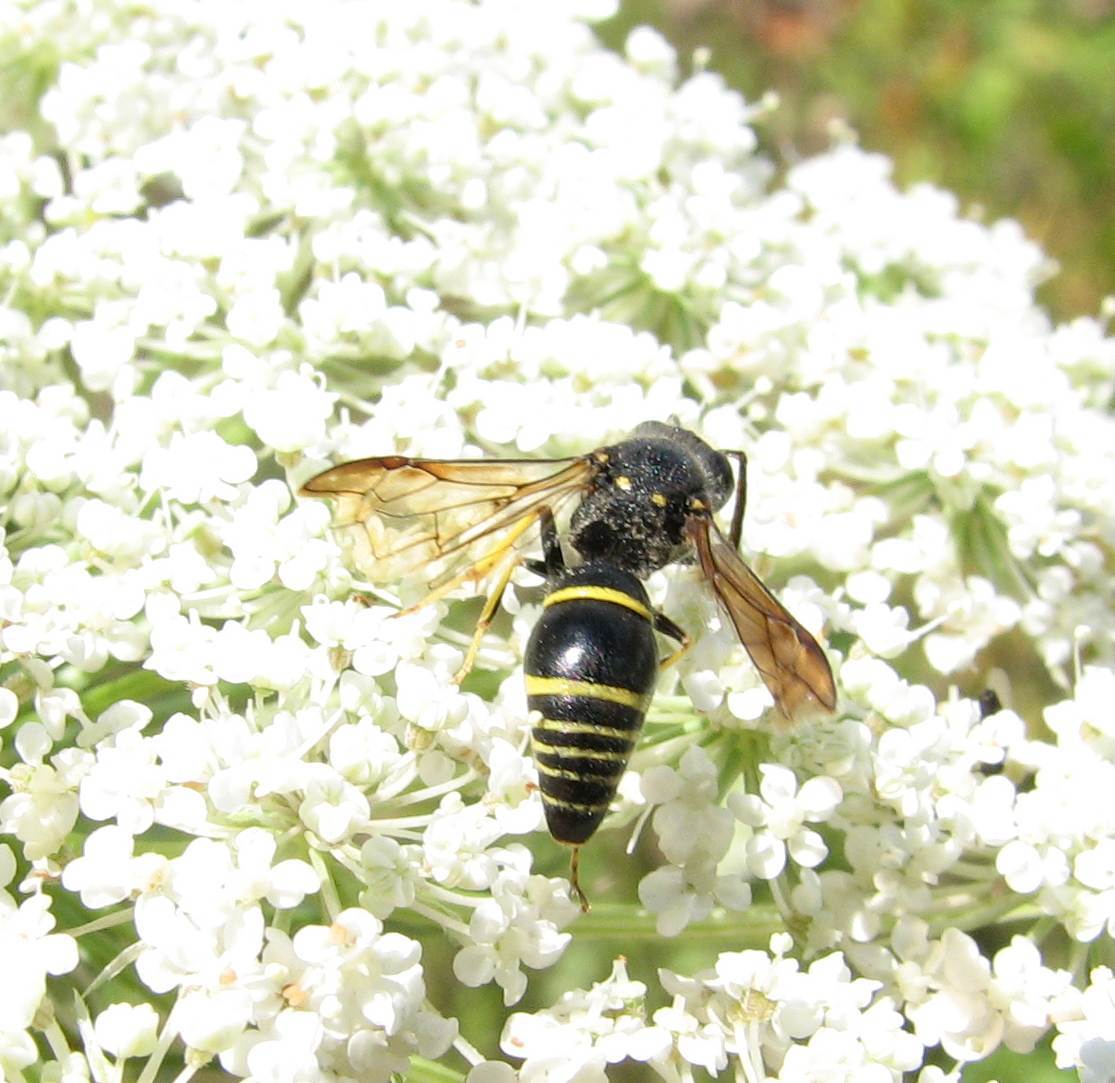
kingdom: Animalia
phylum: Arthropoda
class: Insecta
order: Hymenoptera
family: Vespidae
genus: Ancistrocerus
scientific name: Ancistrocerus
